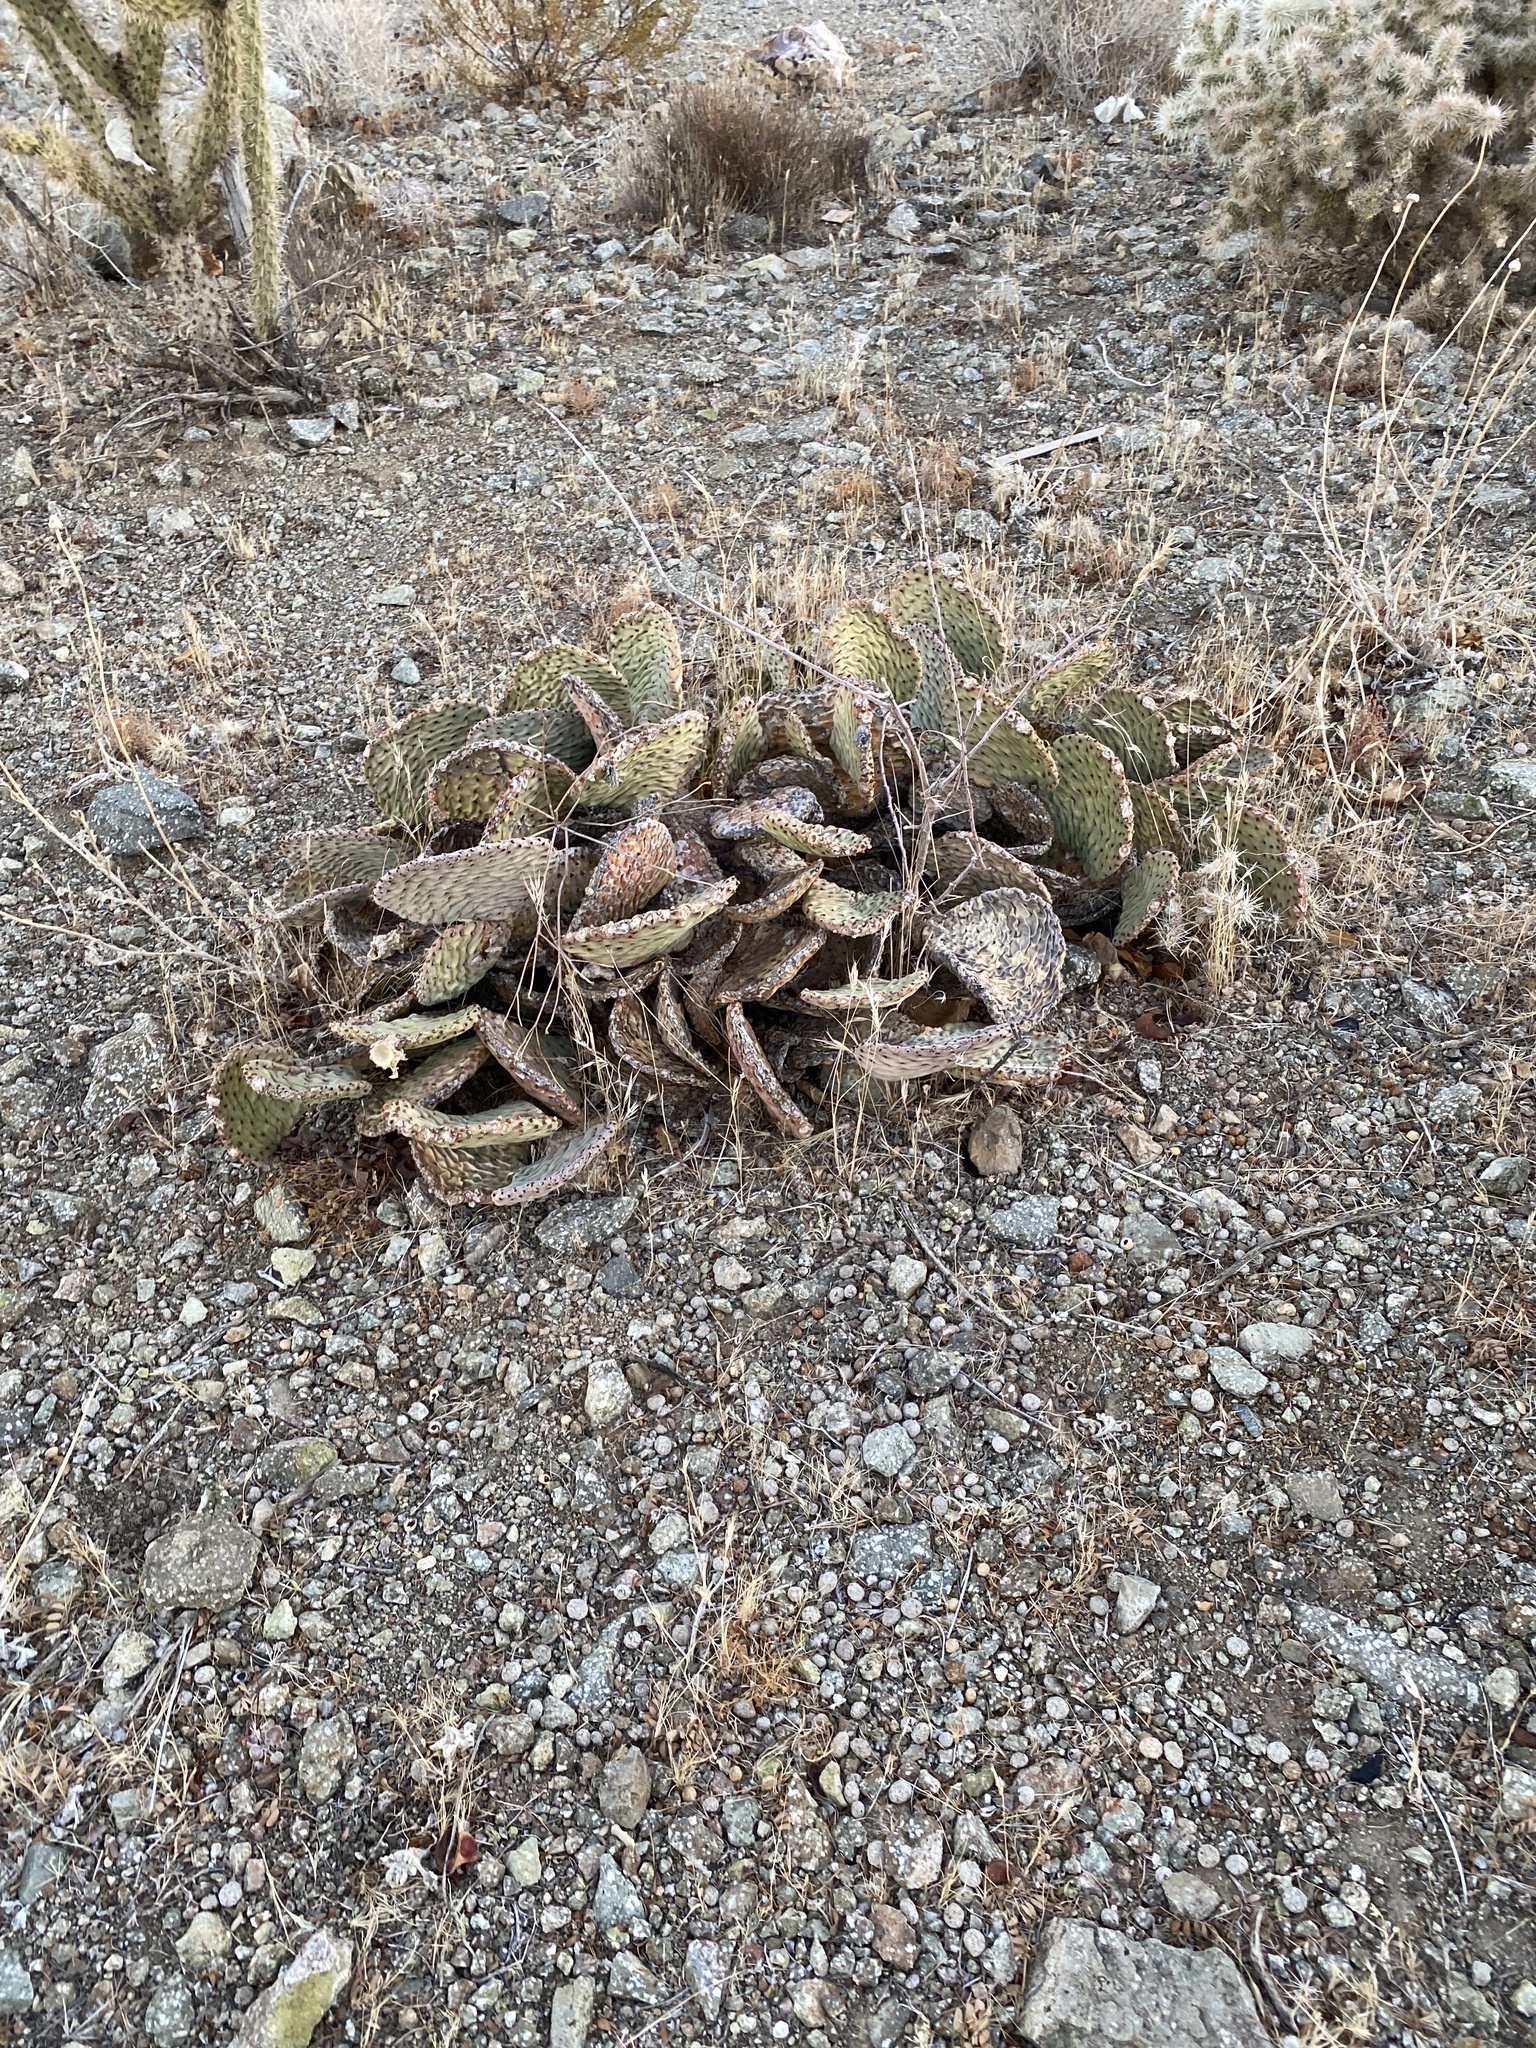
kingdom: Plantae
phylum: Tracheophyta
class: Magnoliopsida
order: Caryophyllales
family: Cactaceae
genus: Opuntia
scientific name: Opuntia basilaris
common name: Beavertail prickly-pear
